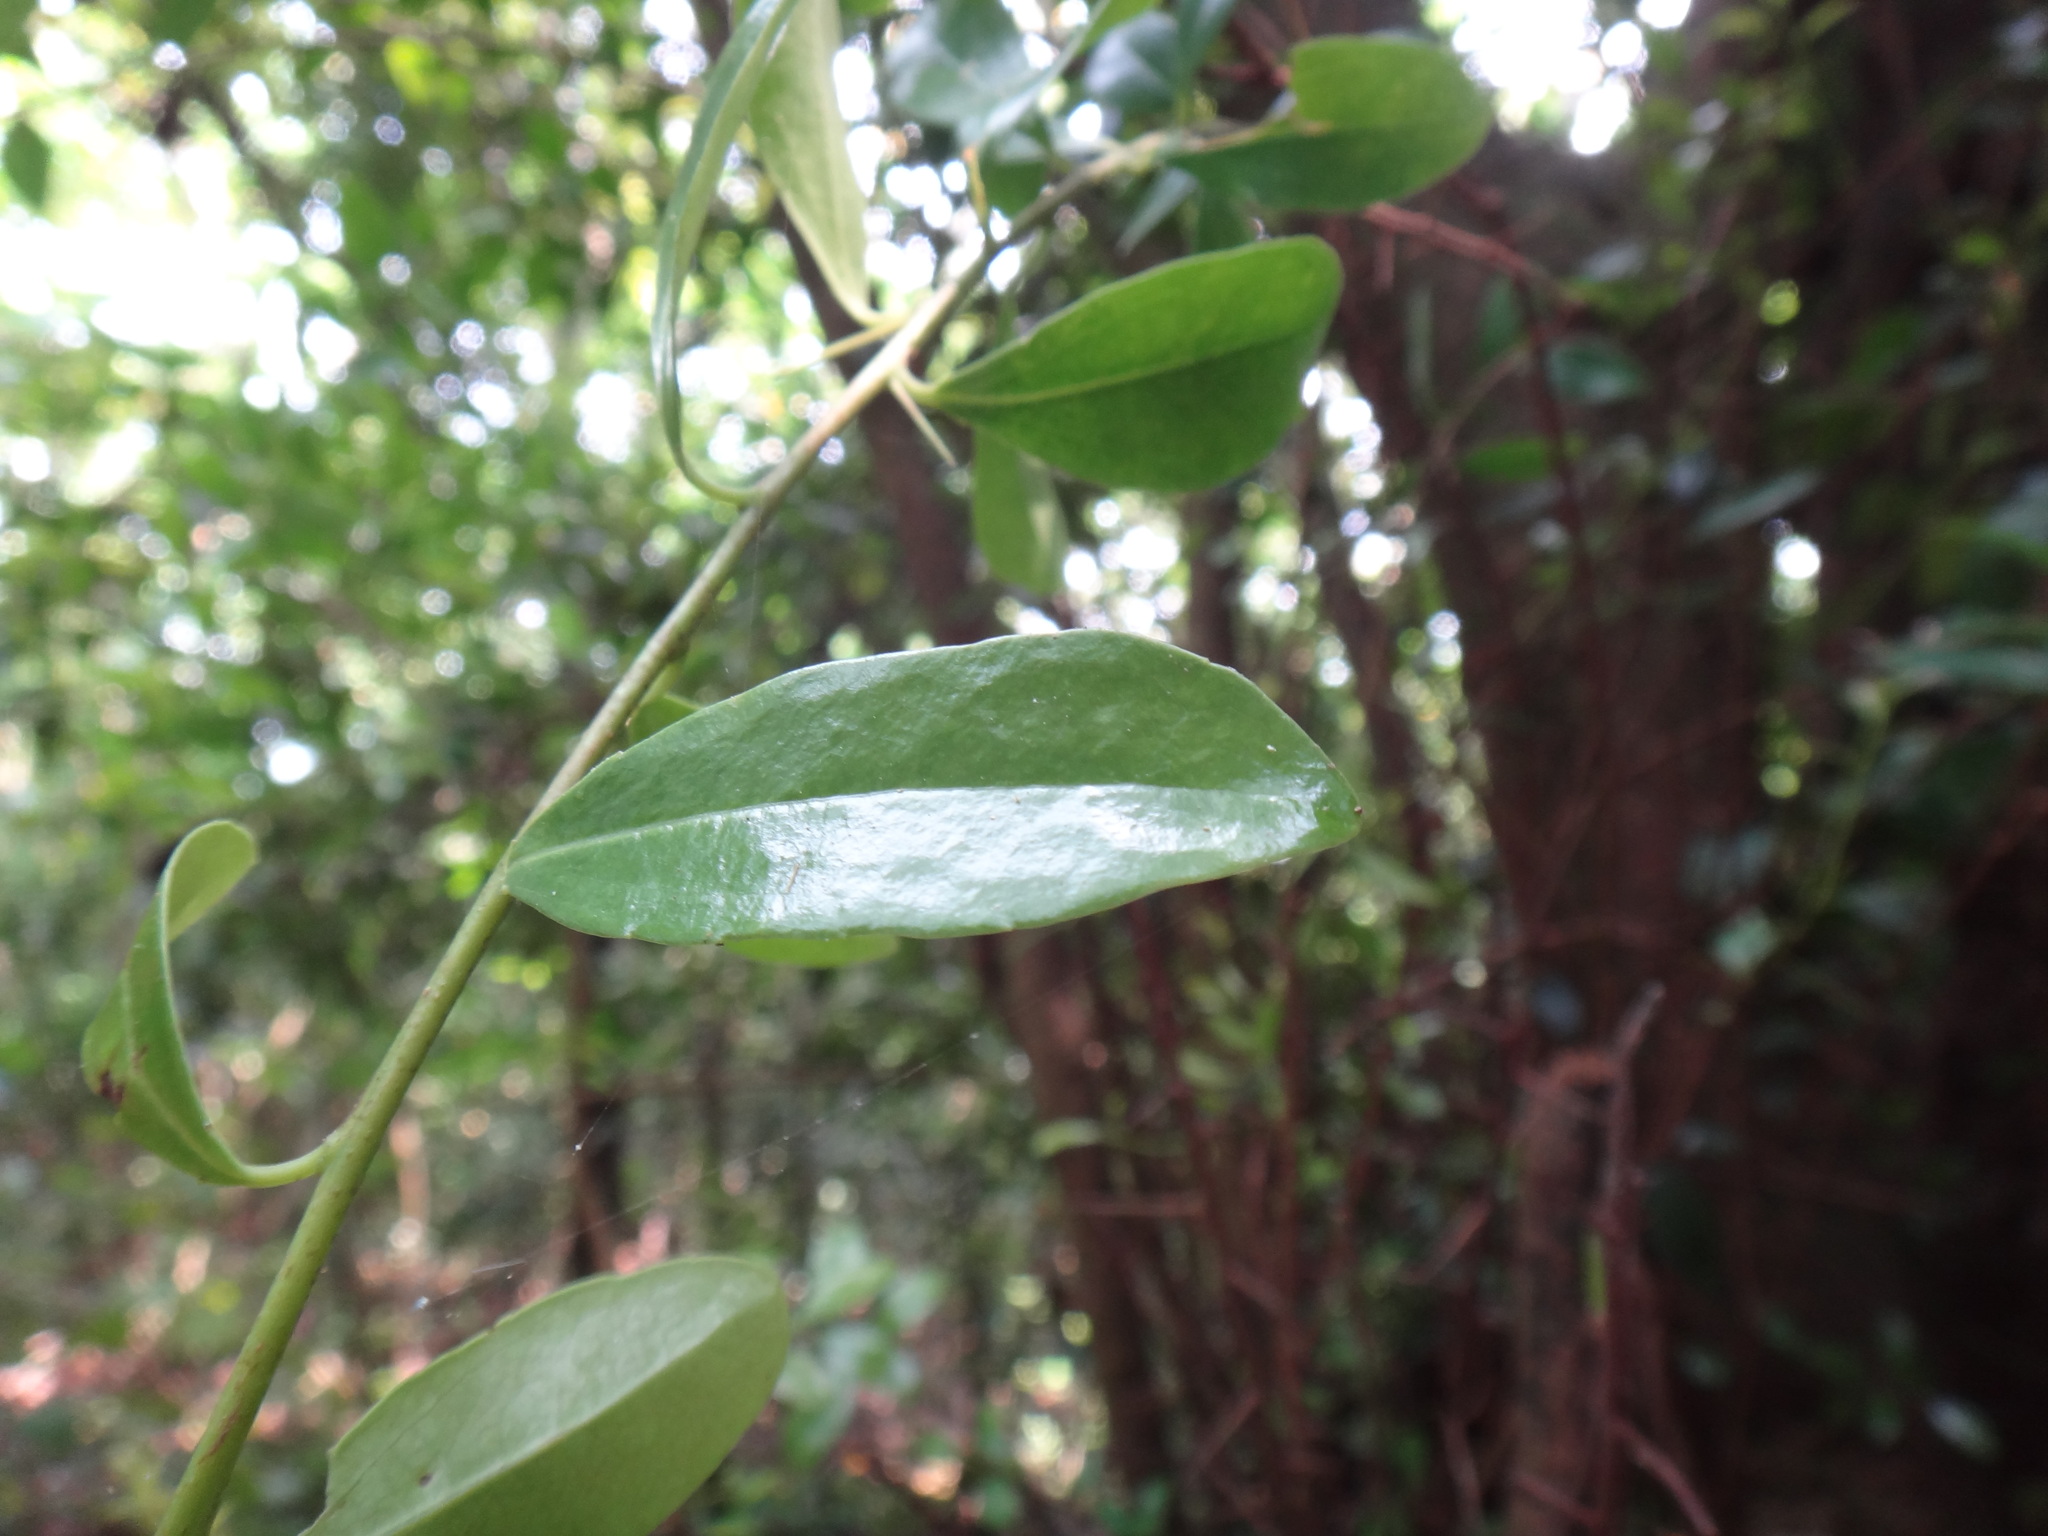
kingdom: Plantae
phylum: Tracheophyta
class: Magnoliopsida
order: Malpighiales
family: Salicaceae
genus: Scolopia
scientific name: Scolopia oldhamii
